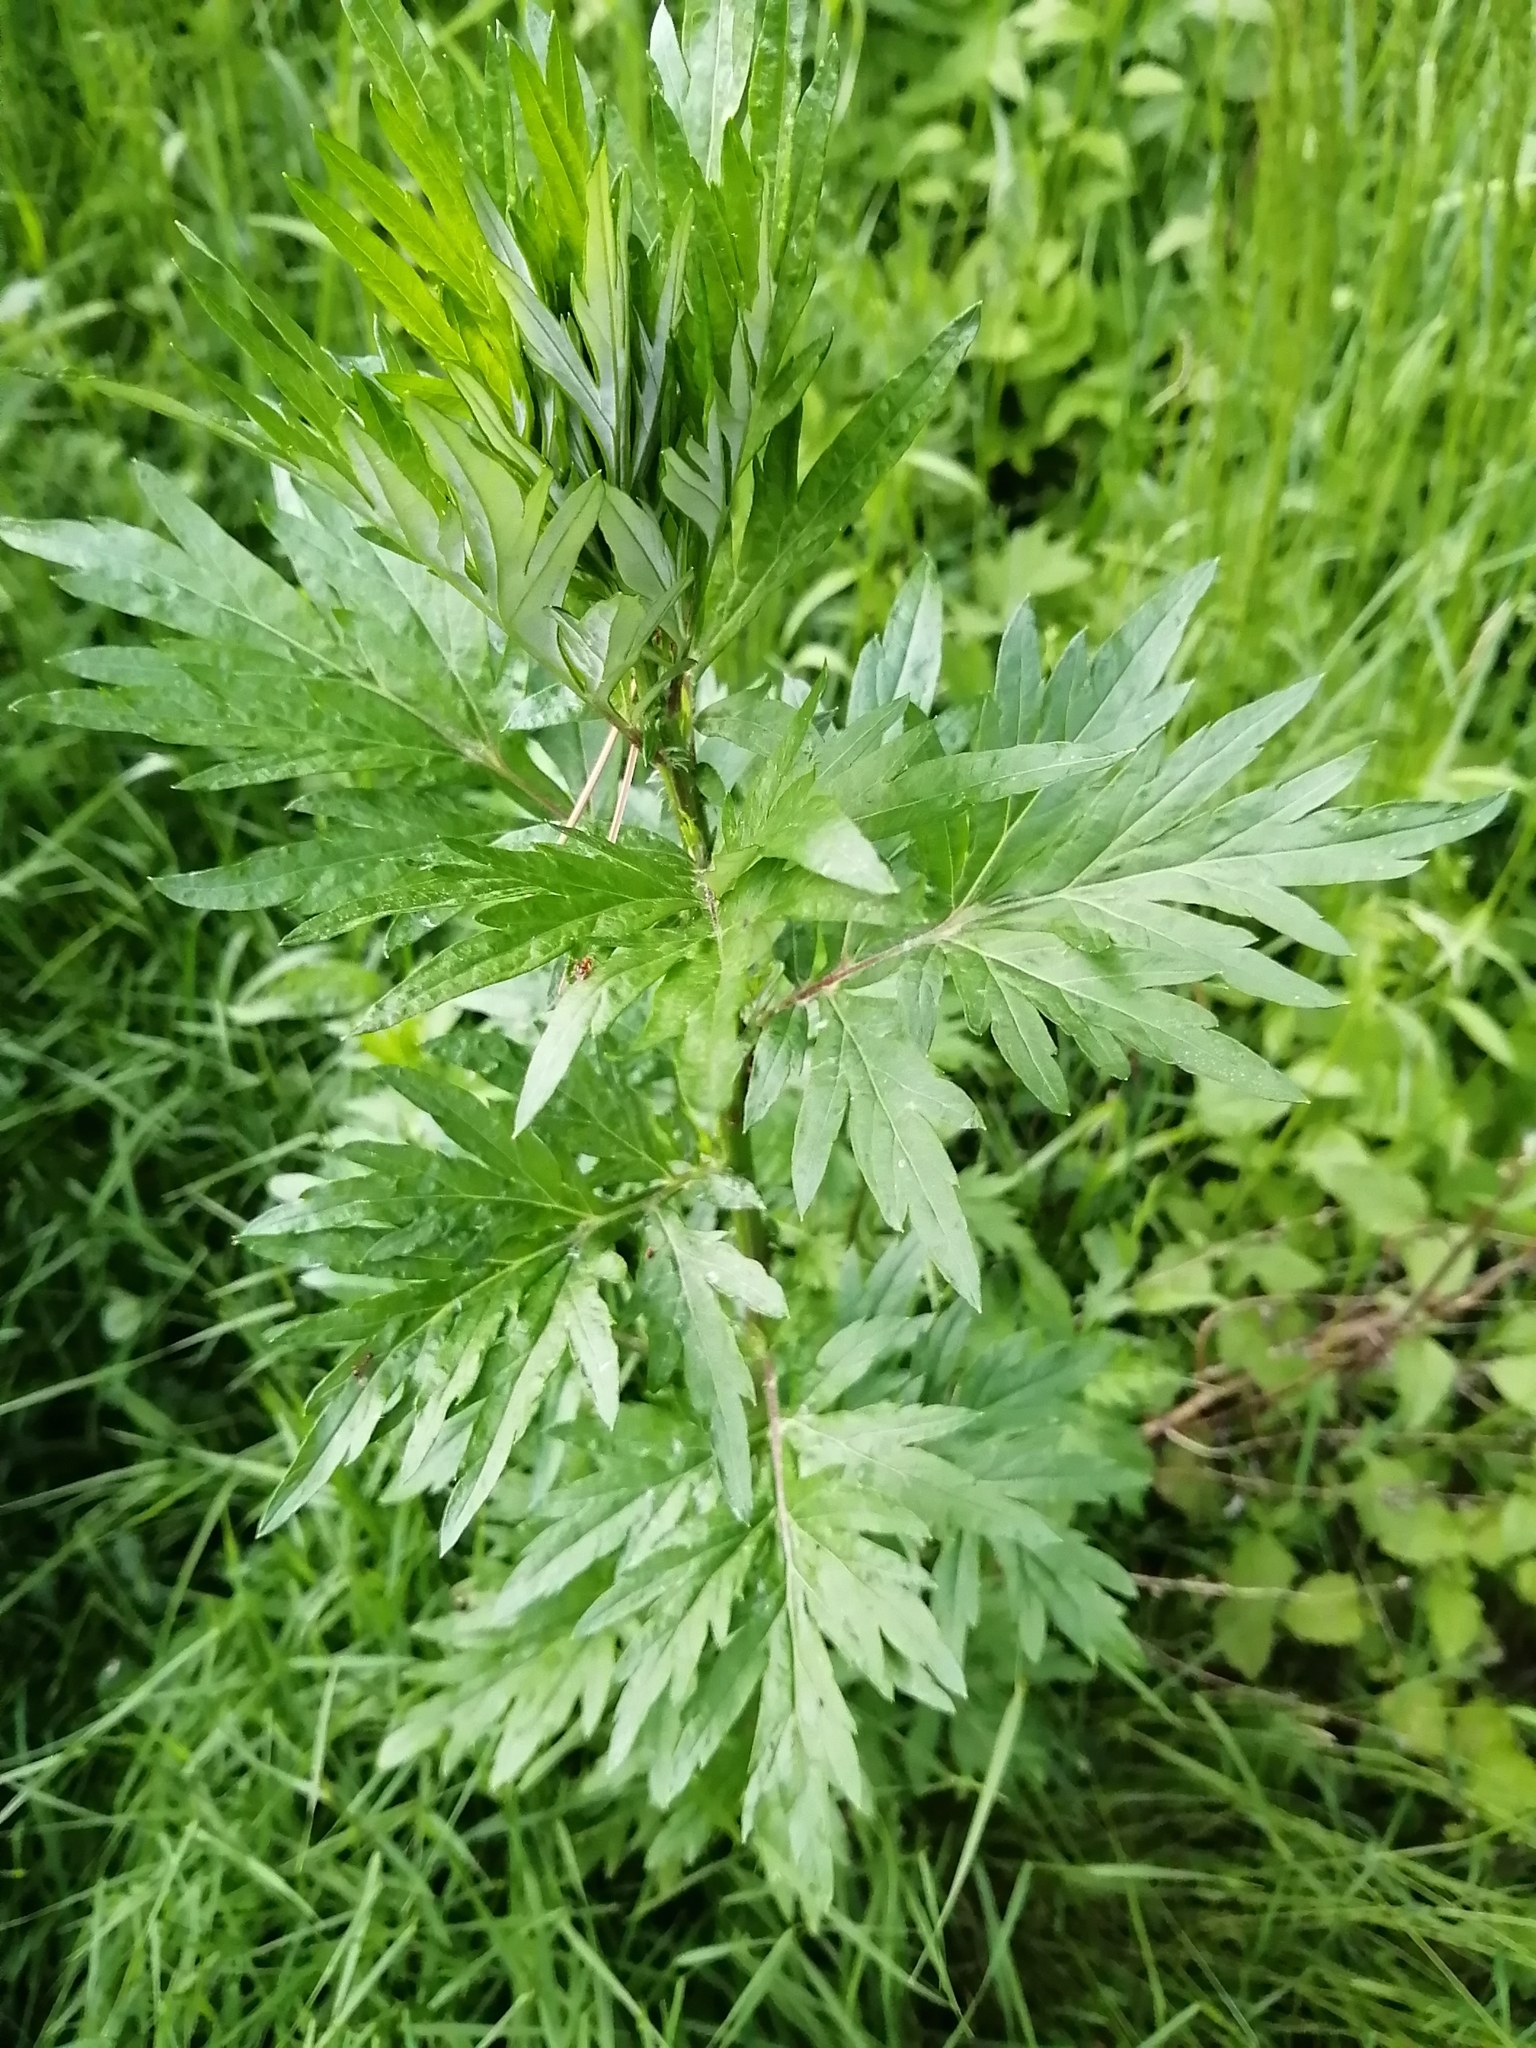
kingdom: Plantae
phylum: Tracheophyta
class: Magnoliopsida
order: Asterales
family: Asteraceae
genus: Artemisia
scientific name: Artemisia vulgaris
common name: Mugwort
